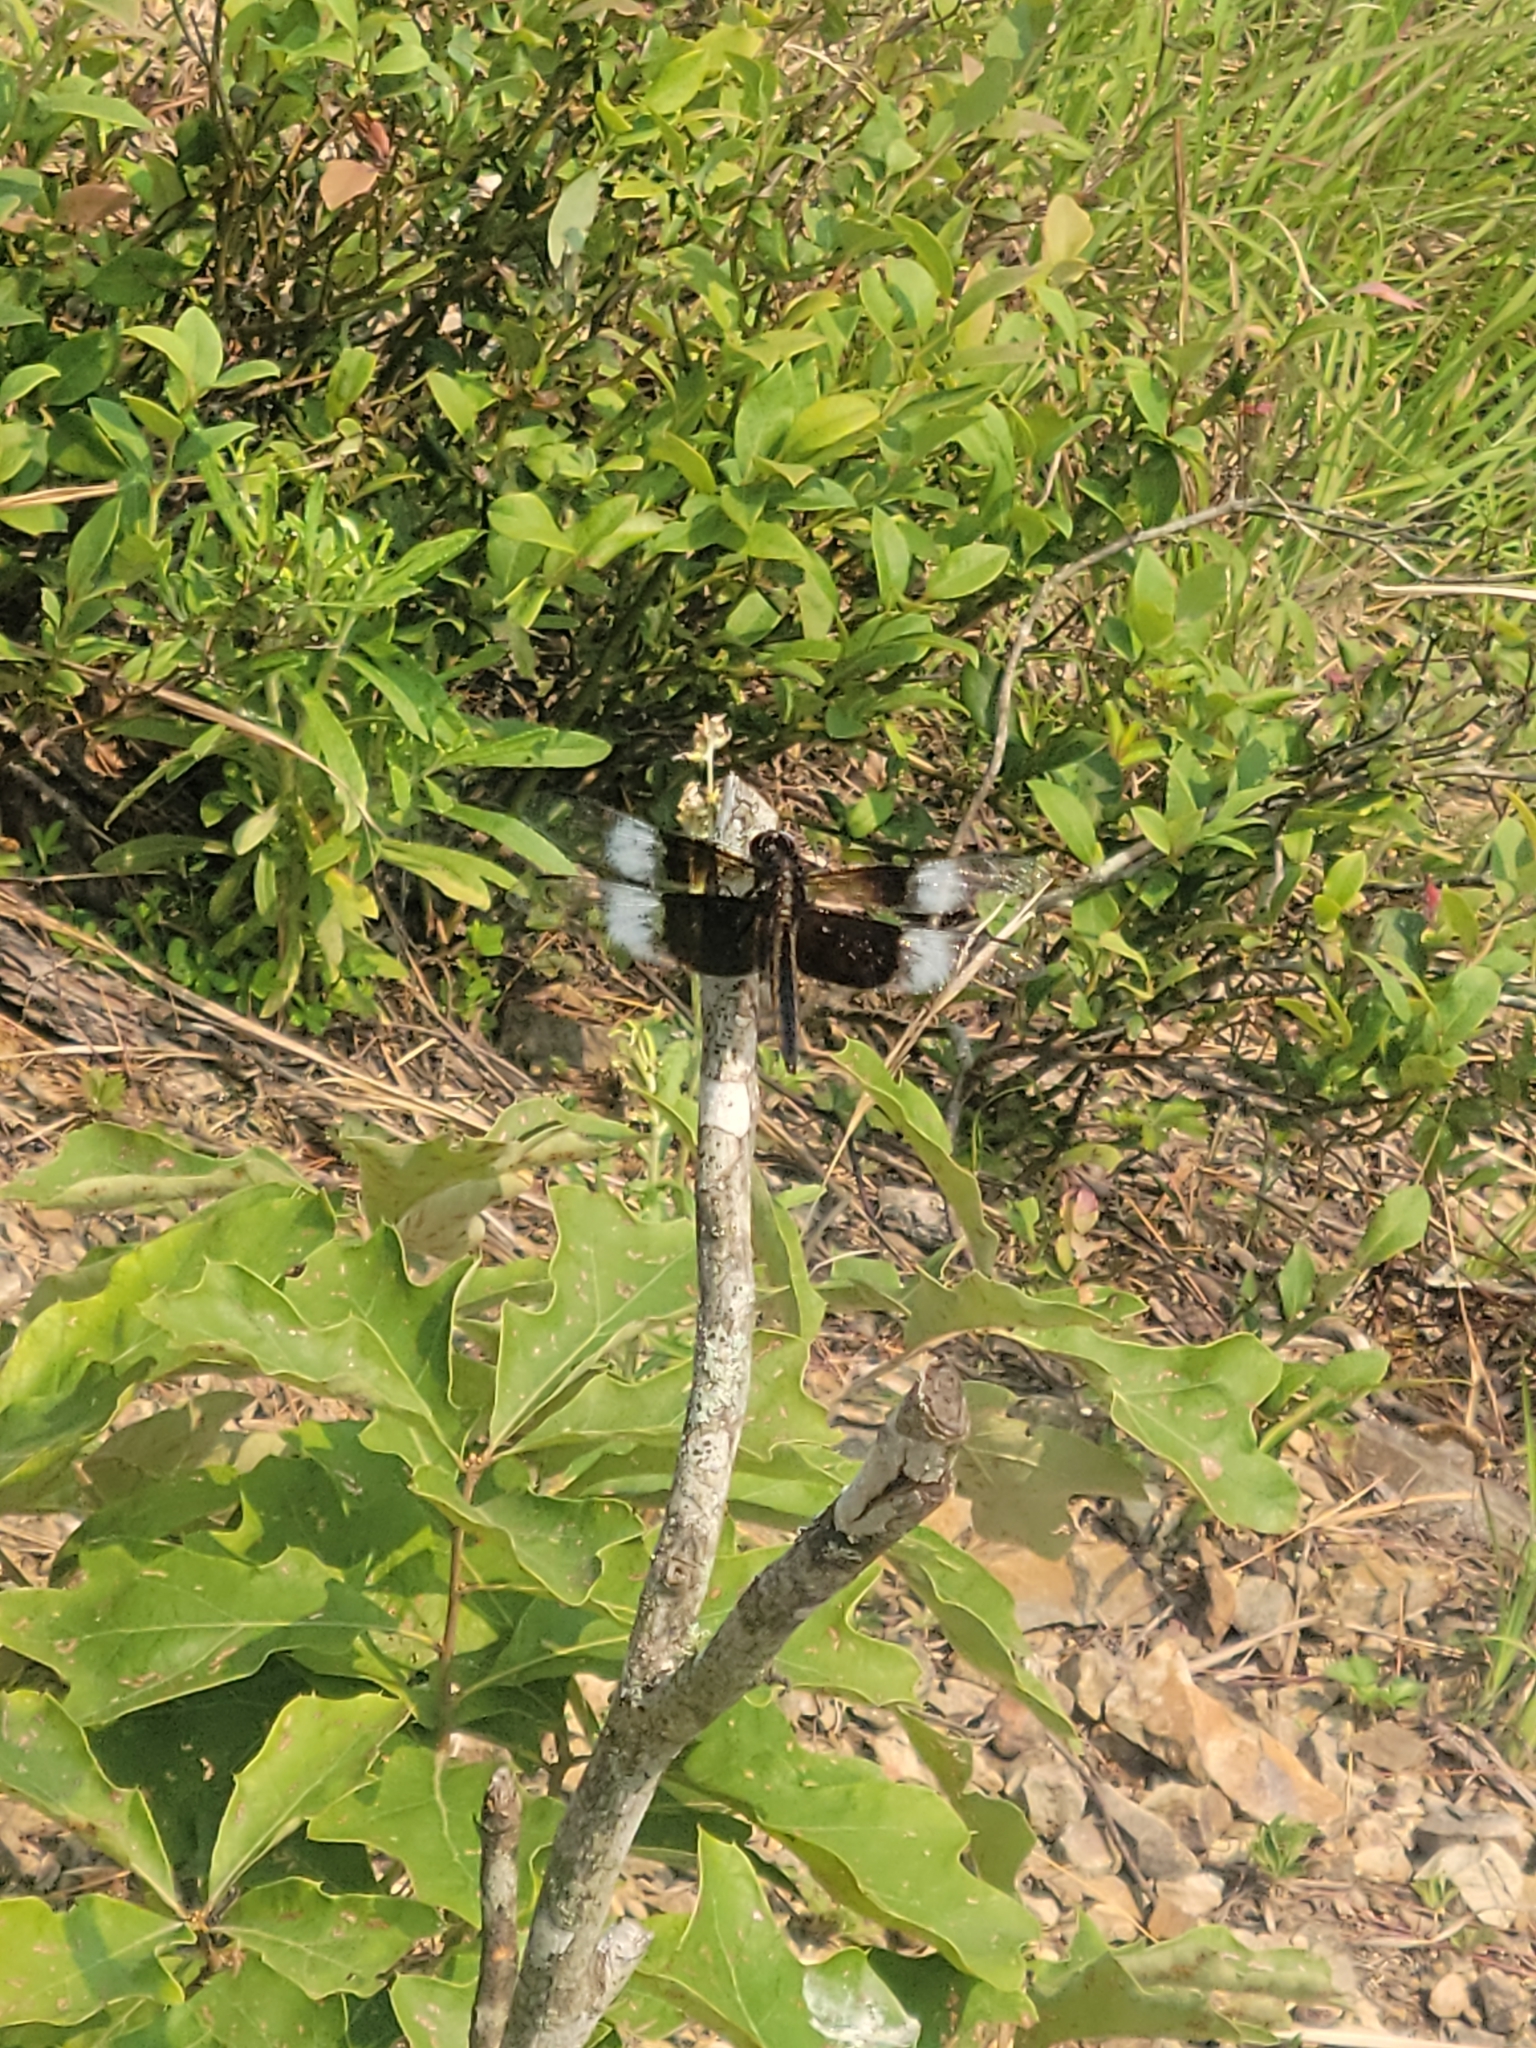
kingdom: Animalia
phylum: Arthropoda
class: Insecta
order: Odonata
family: Libellulidae
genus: Libellula
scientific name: Libellula luctuosa
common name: Widow skimmer
